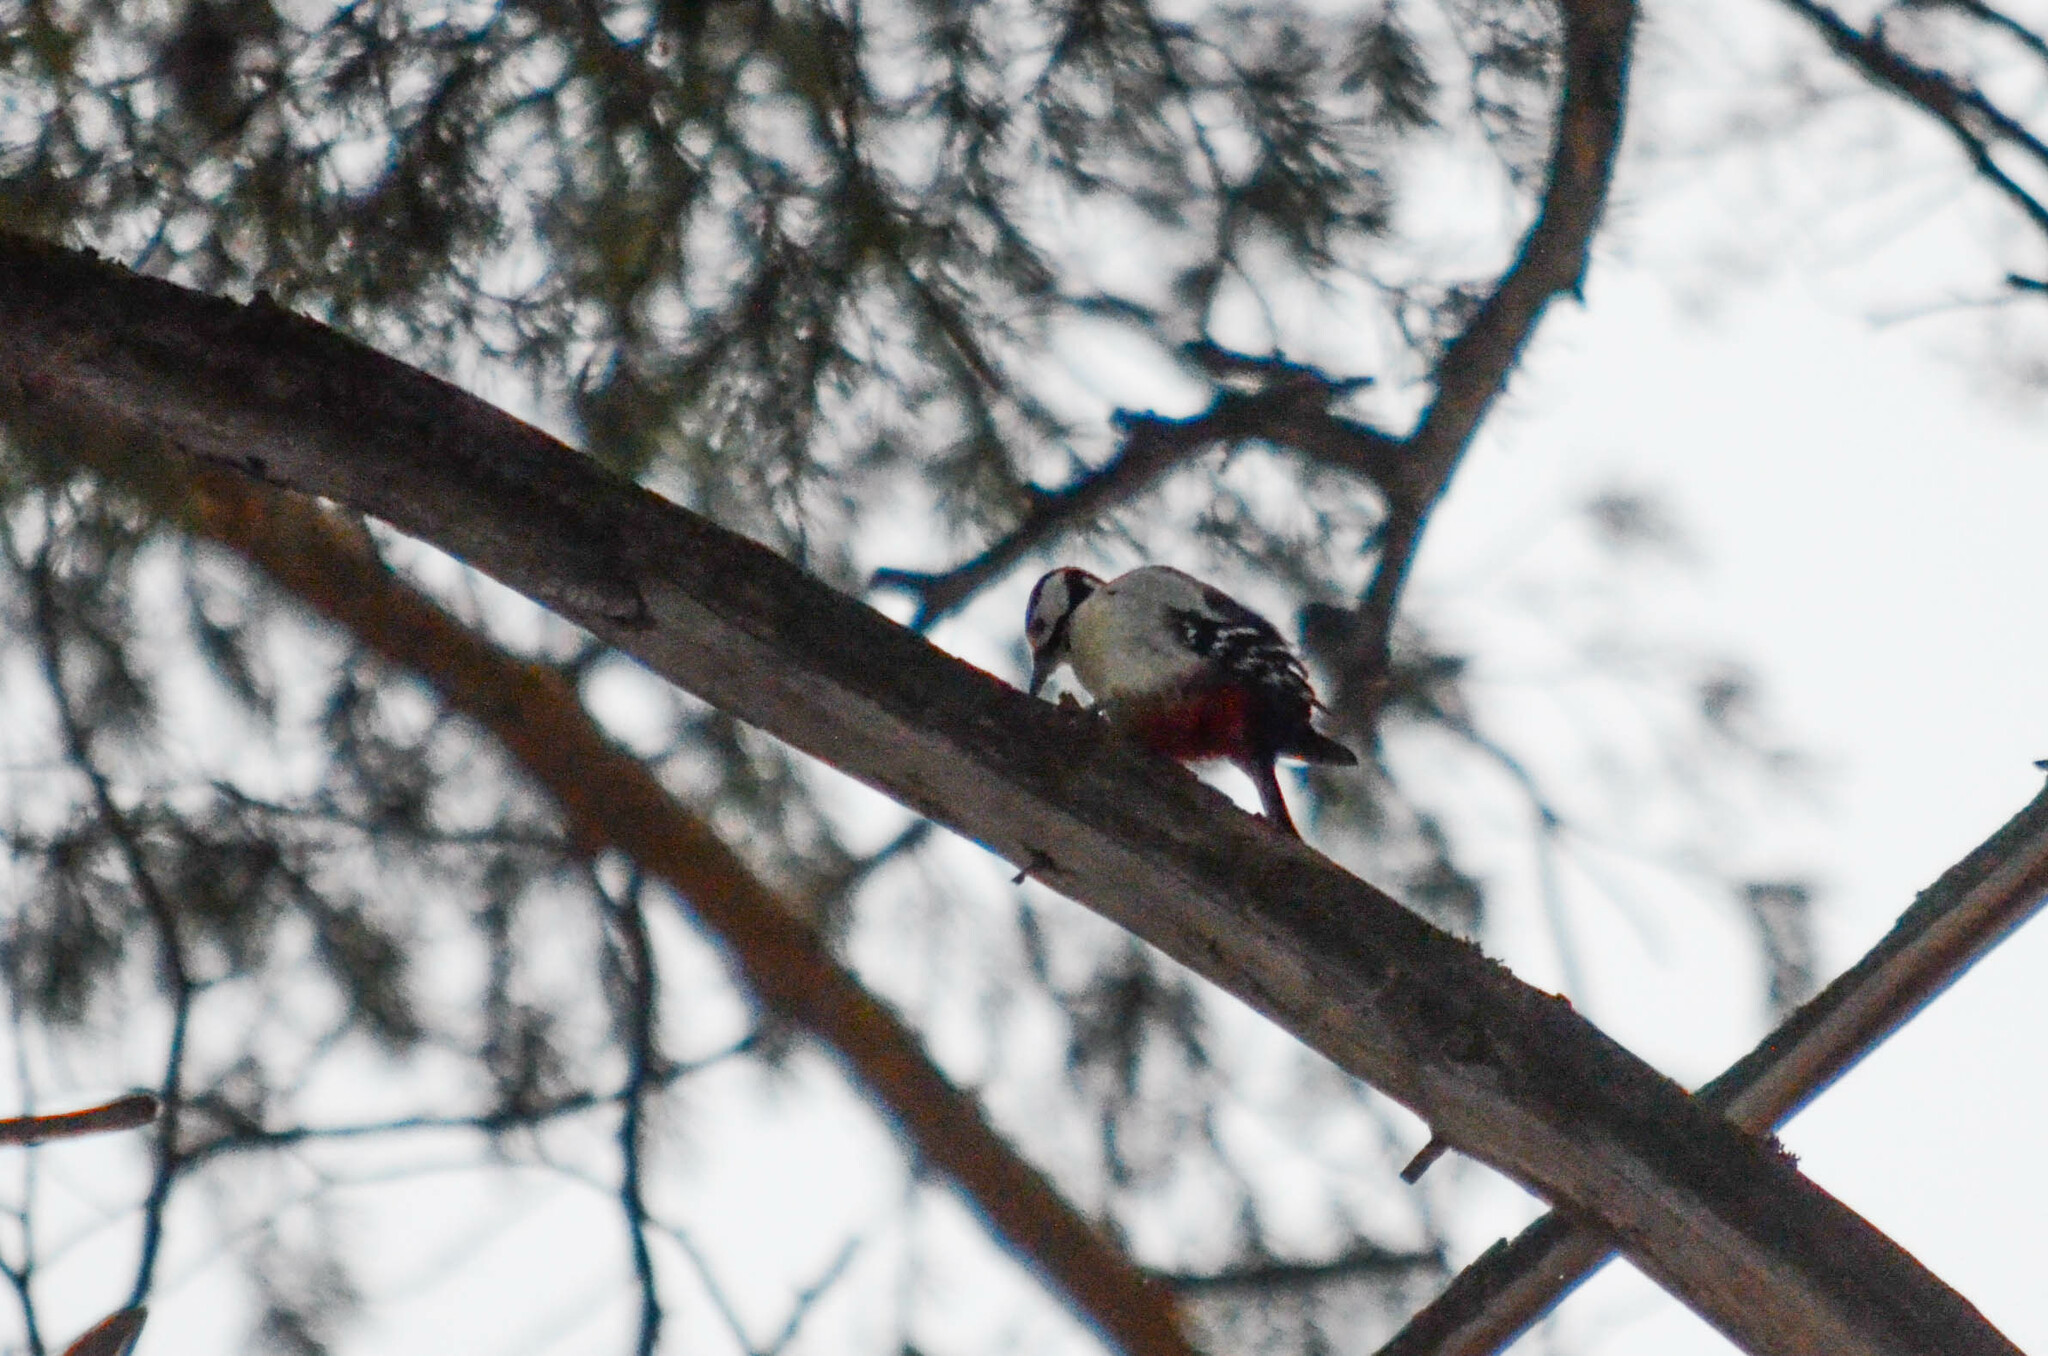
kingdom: Animalia
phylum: Chordata
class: Aves
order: Piciformes
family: Picidae
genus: Dendrocopos
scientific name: Dendrocopos major
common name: Great spotted woodpecker
